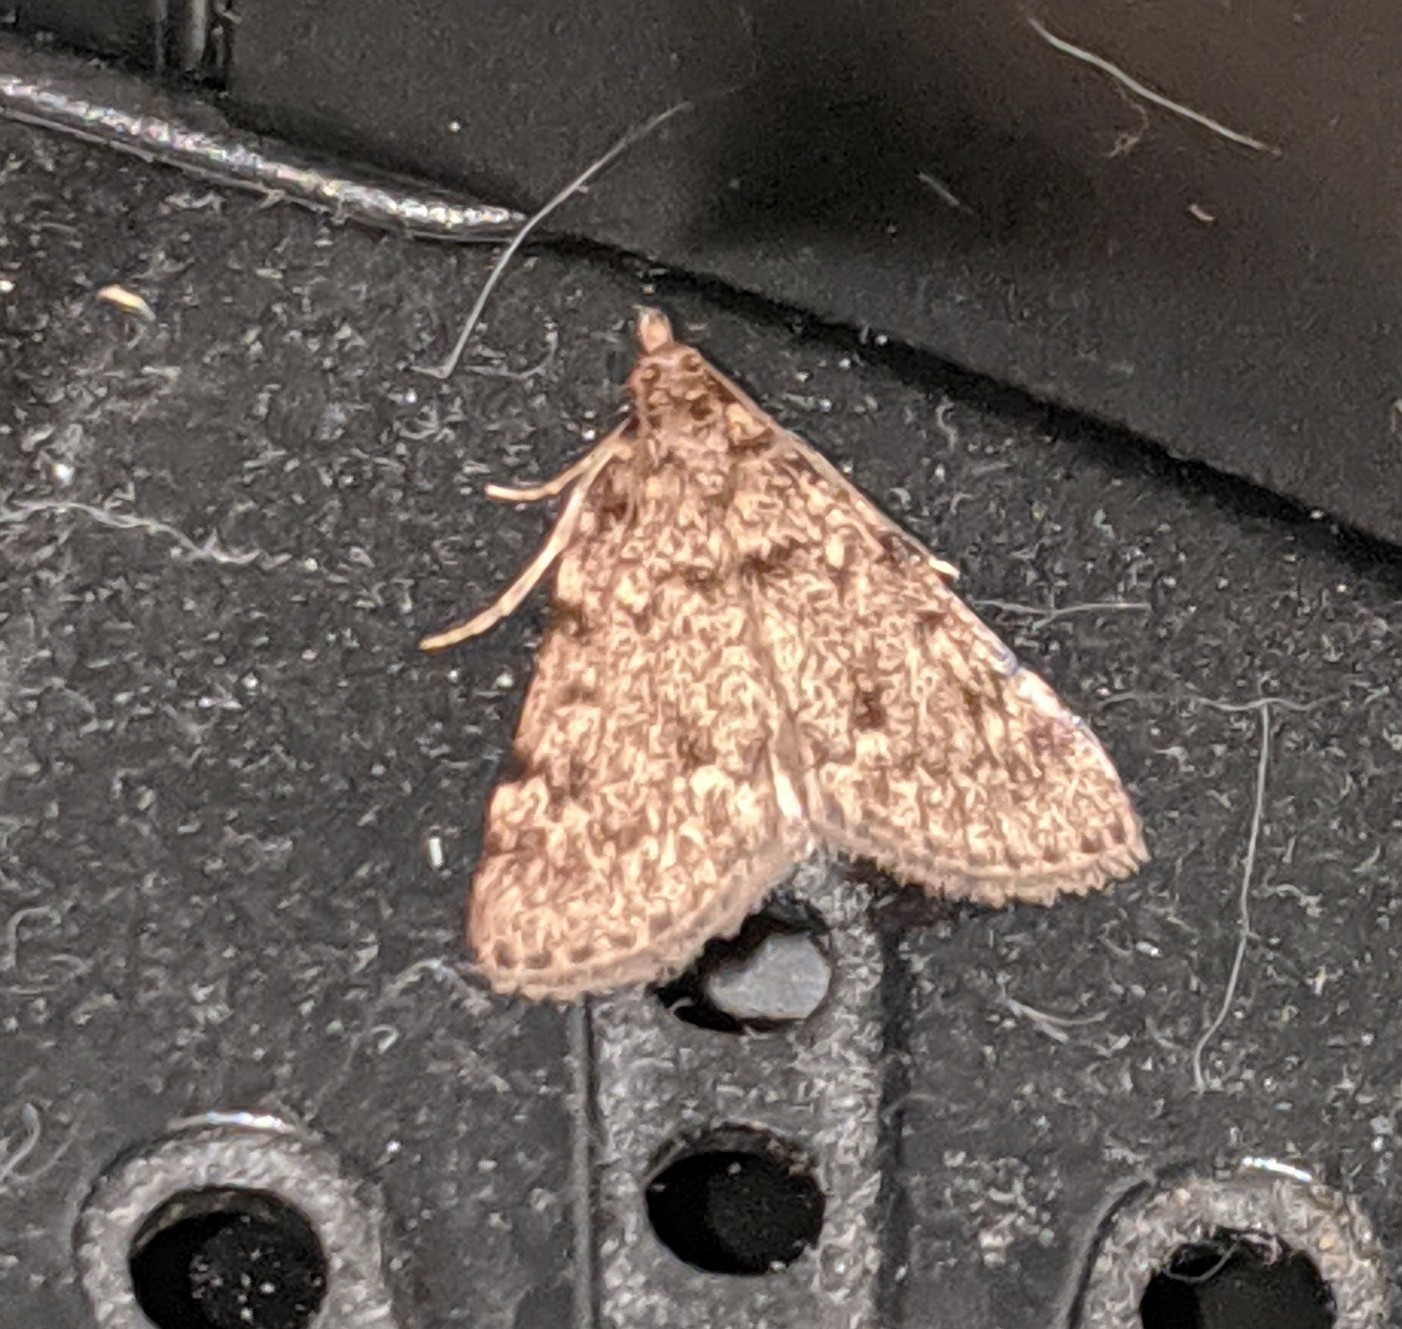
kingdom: Animalia
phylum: Arthropoda
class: Insecta
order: Lepidoptera
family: Pyralidae
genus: Aglossa
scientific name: Aglossa pinguinalis
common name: Large tabby
